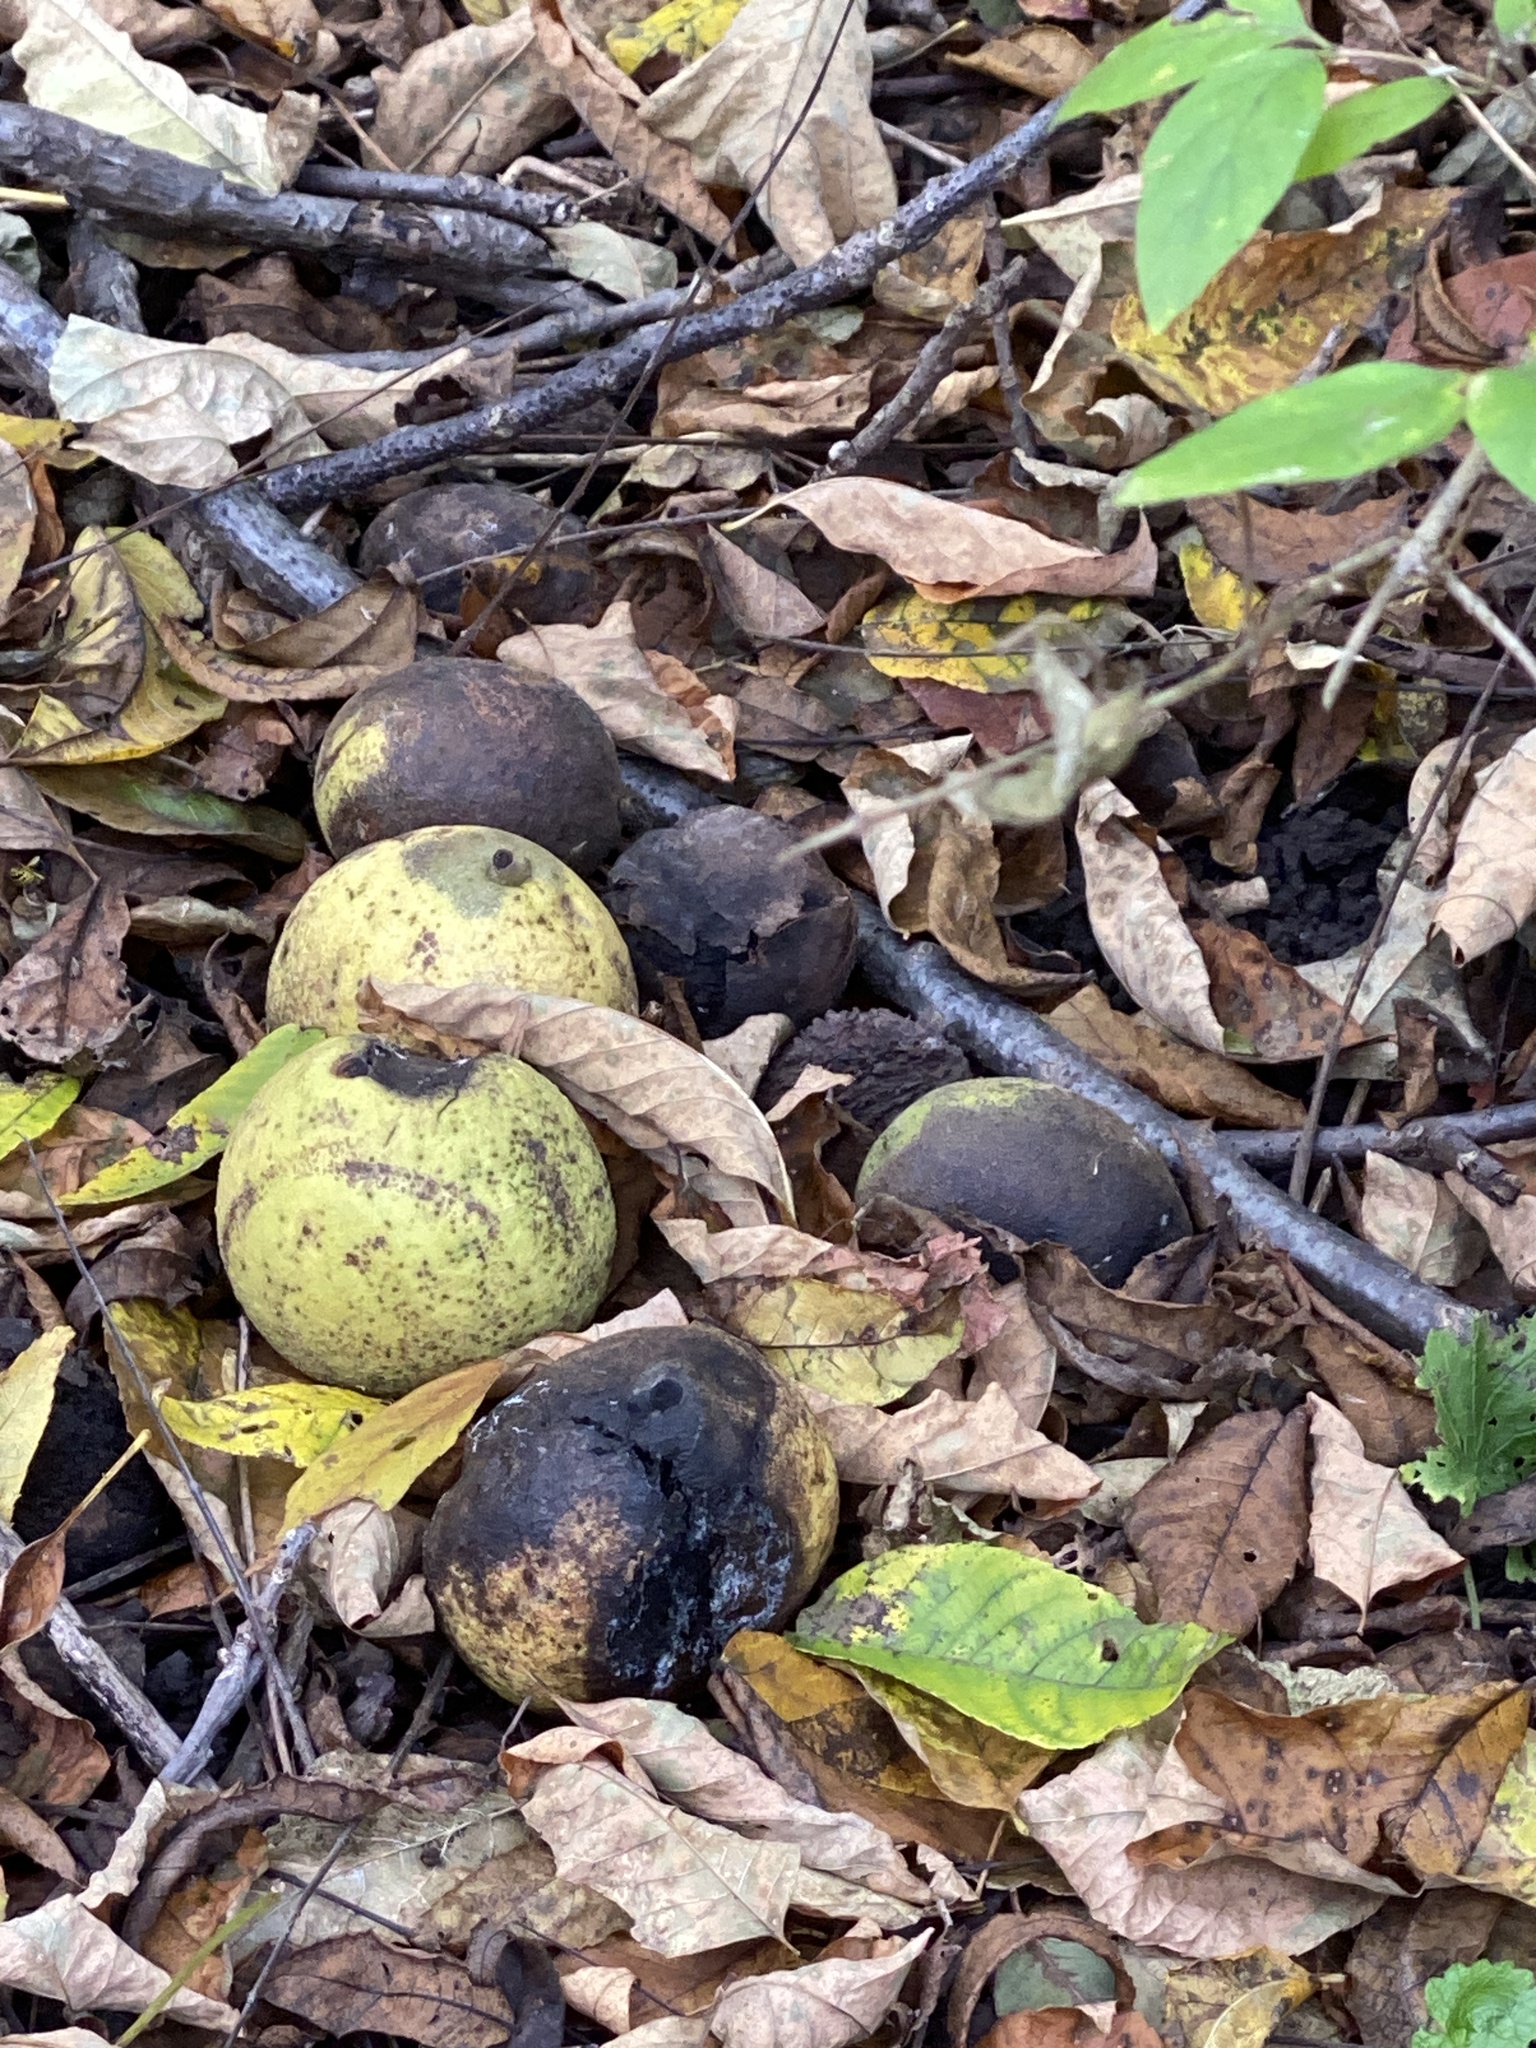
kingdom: Plantae
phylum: Tracheophyta
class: Magnoliopsida
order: Fagales
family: Juglandaceae
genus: Juglans
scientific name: Juglans nigra
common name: Black walnut
